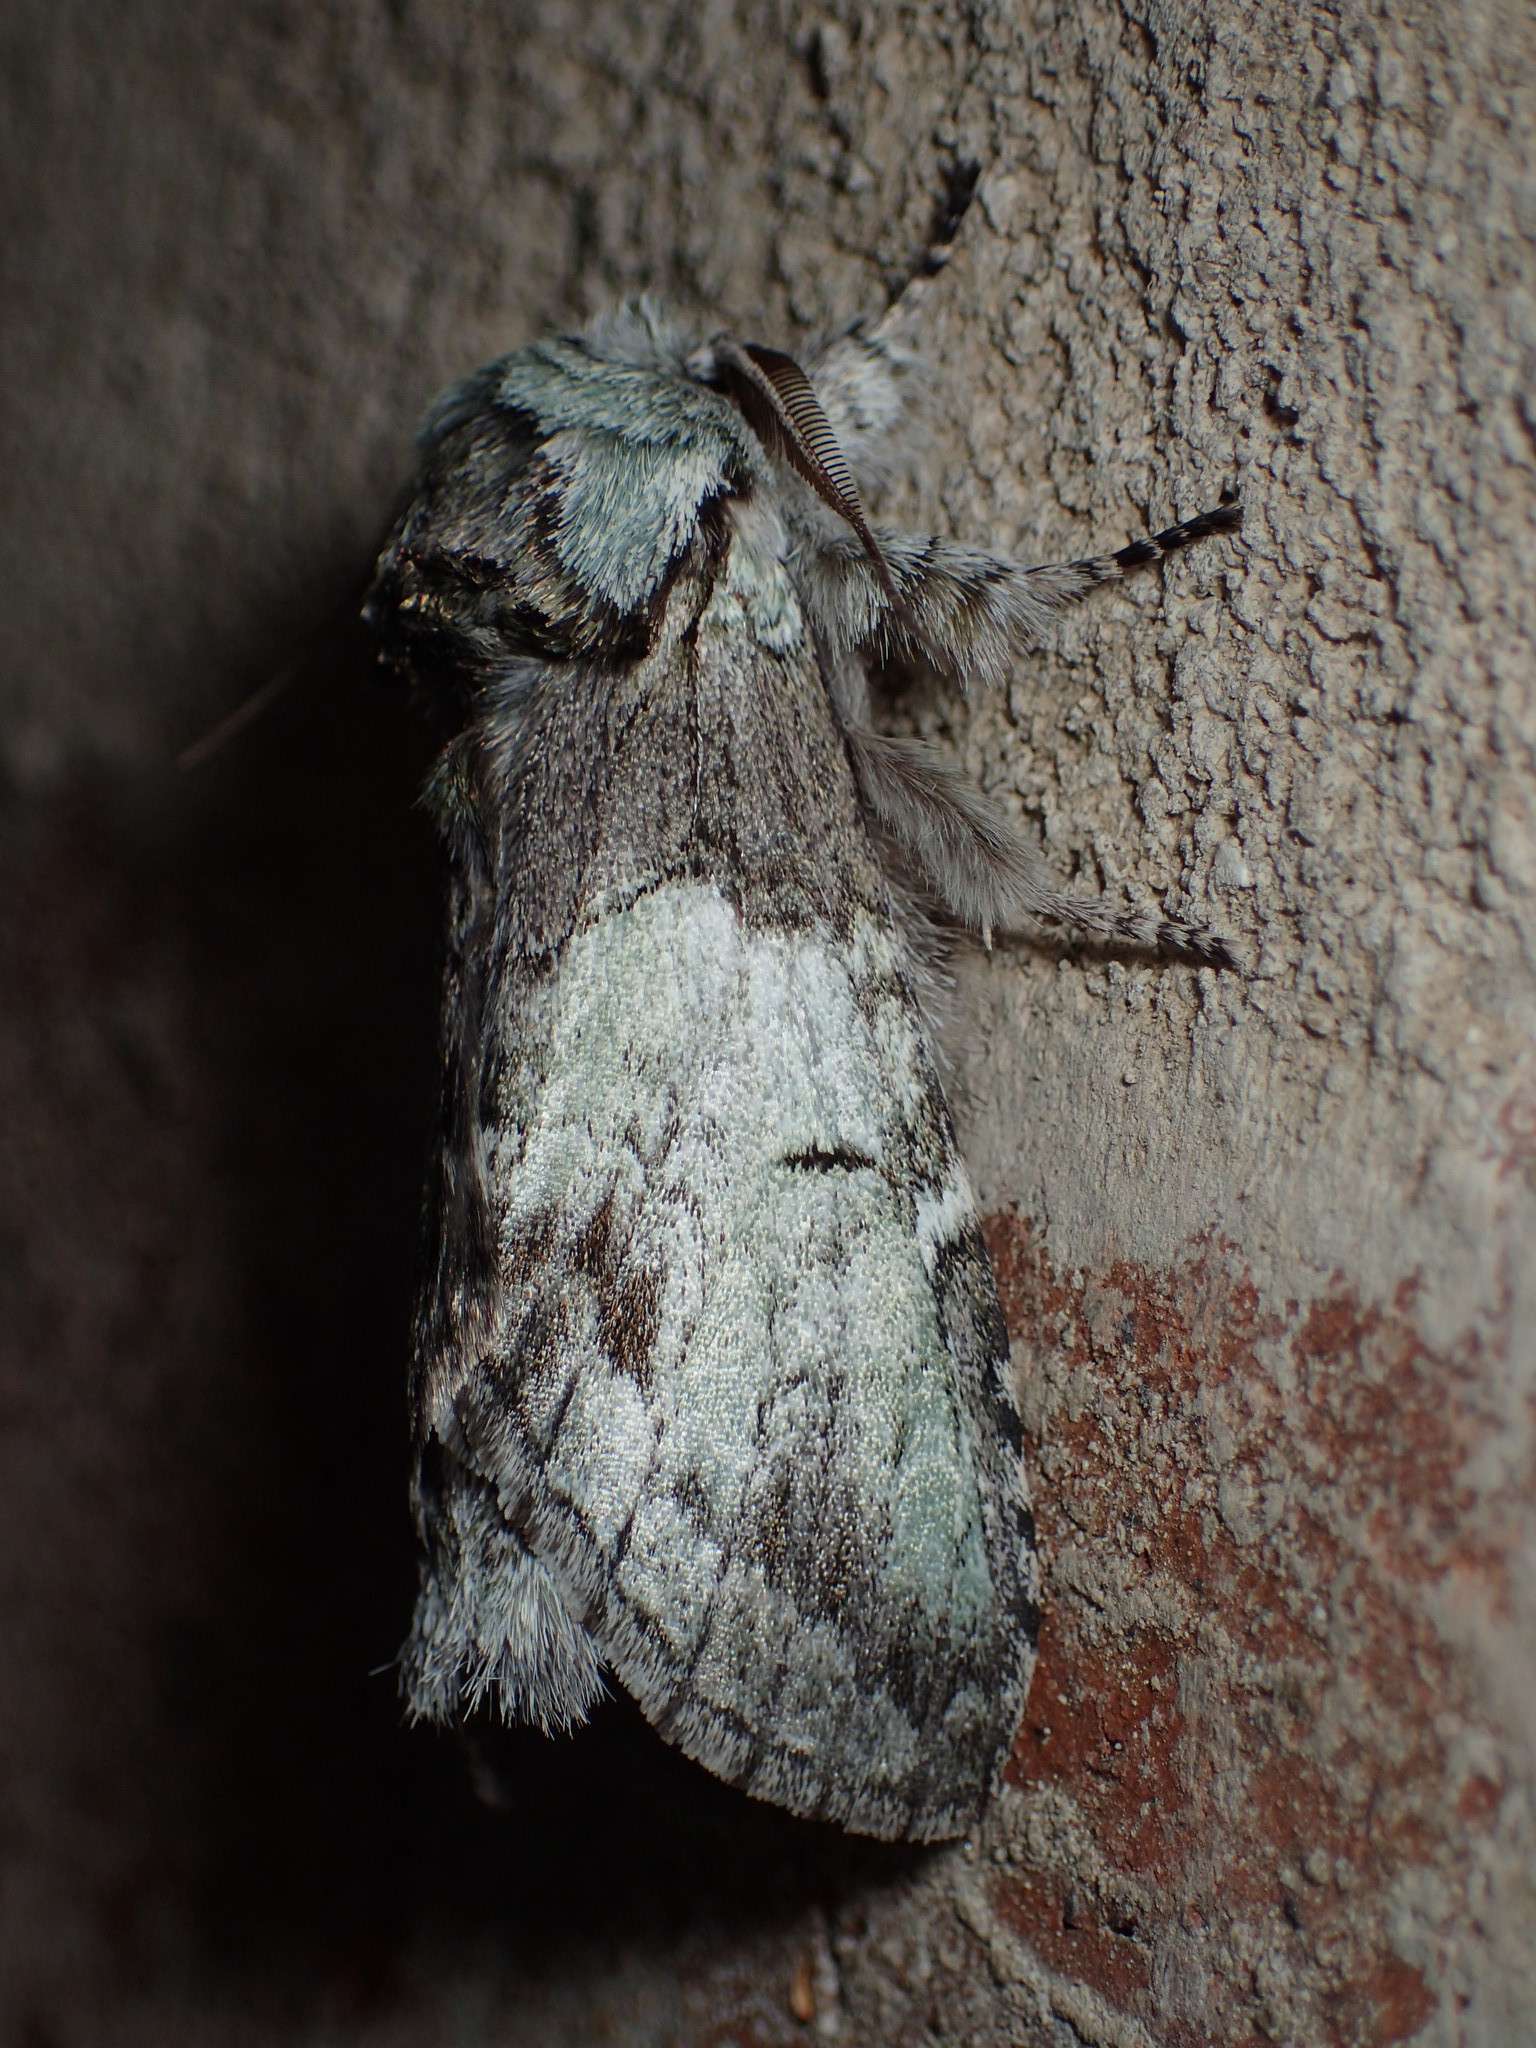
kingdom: Animalia
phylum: Arthropoda
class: Insecta
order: Lepidoptera
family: Notodontidae
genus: Macrurocampa
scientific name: Macrurocampa marthesia
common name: Mottled prominent
